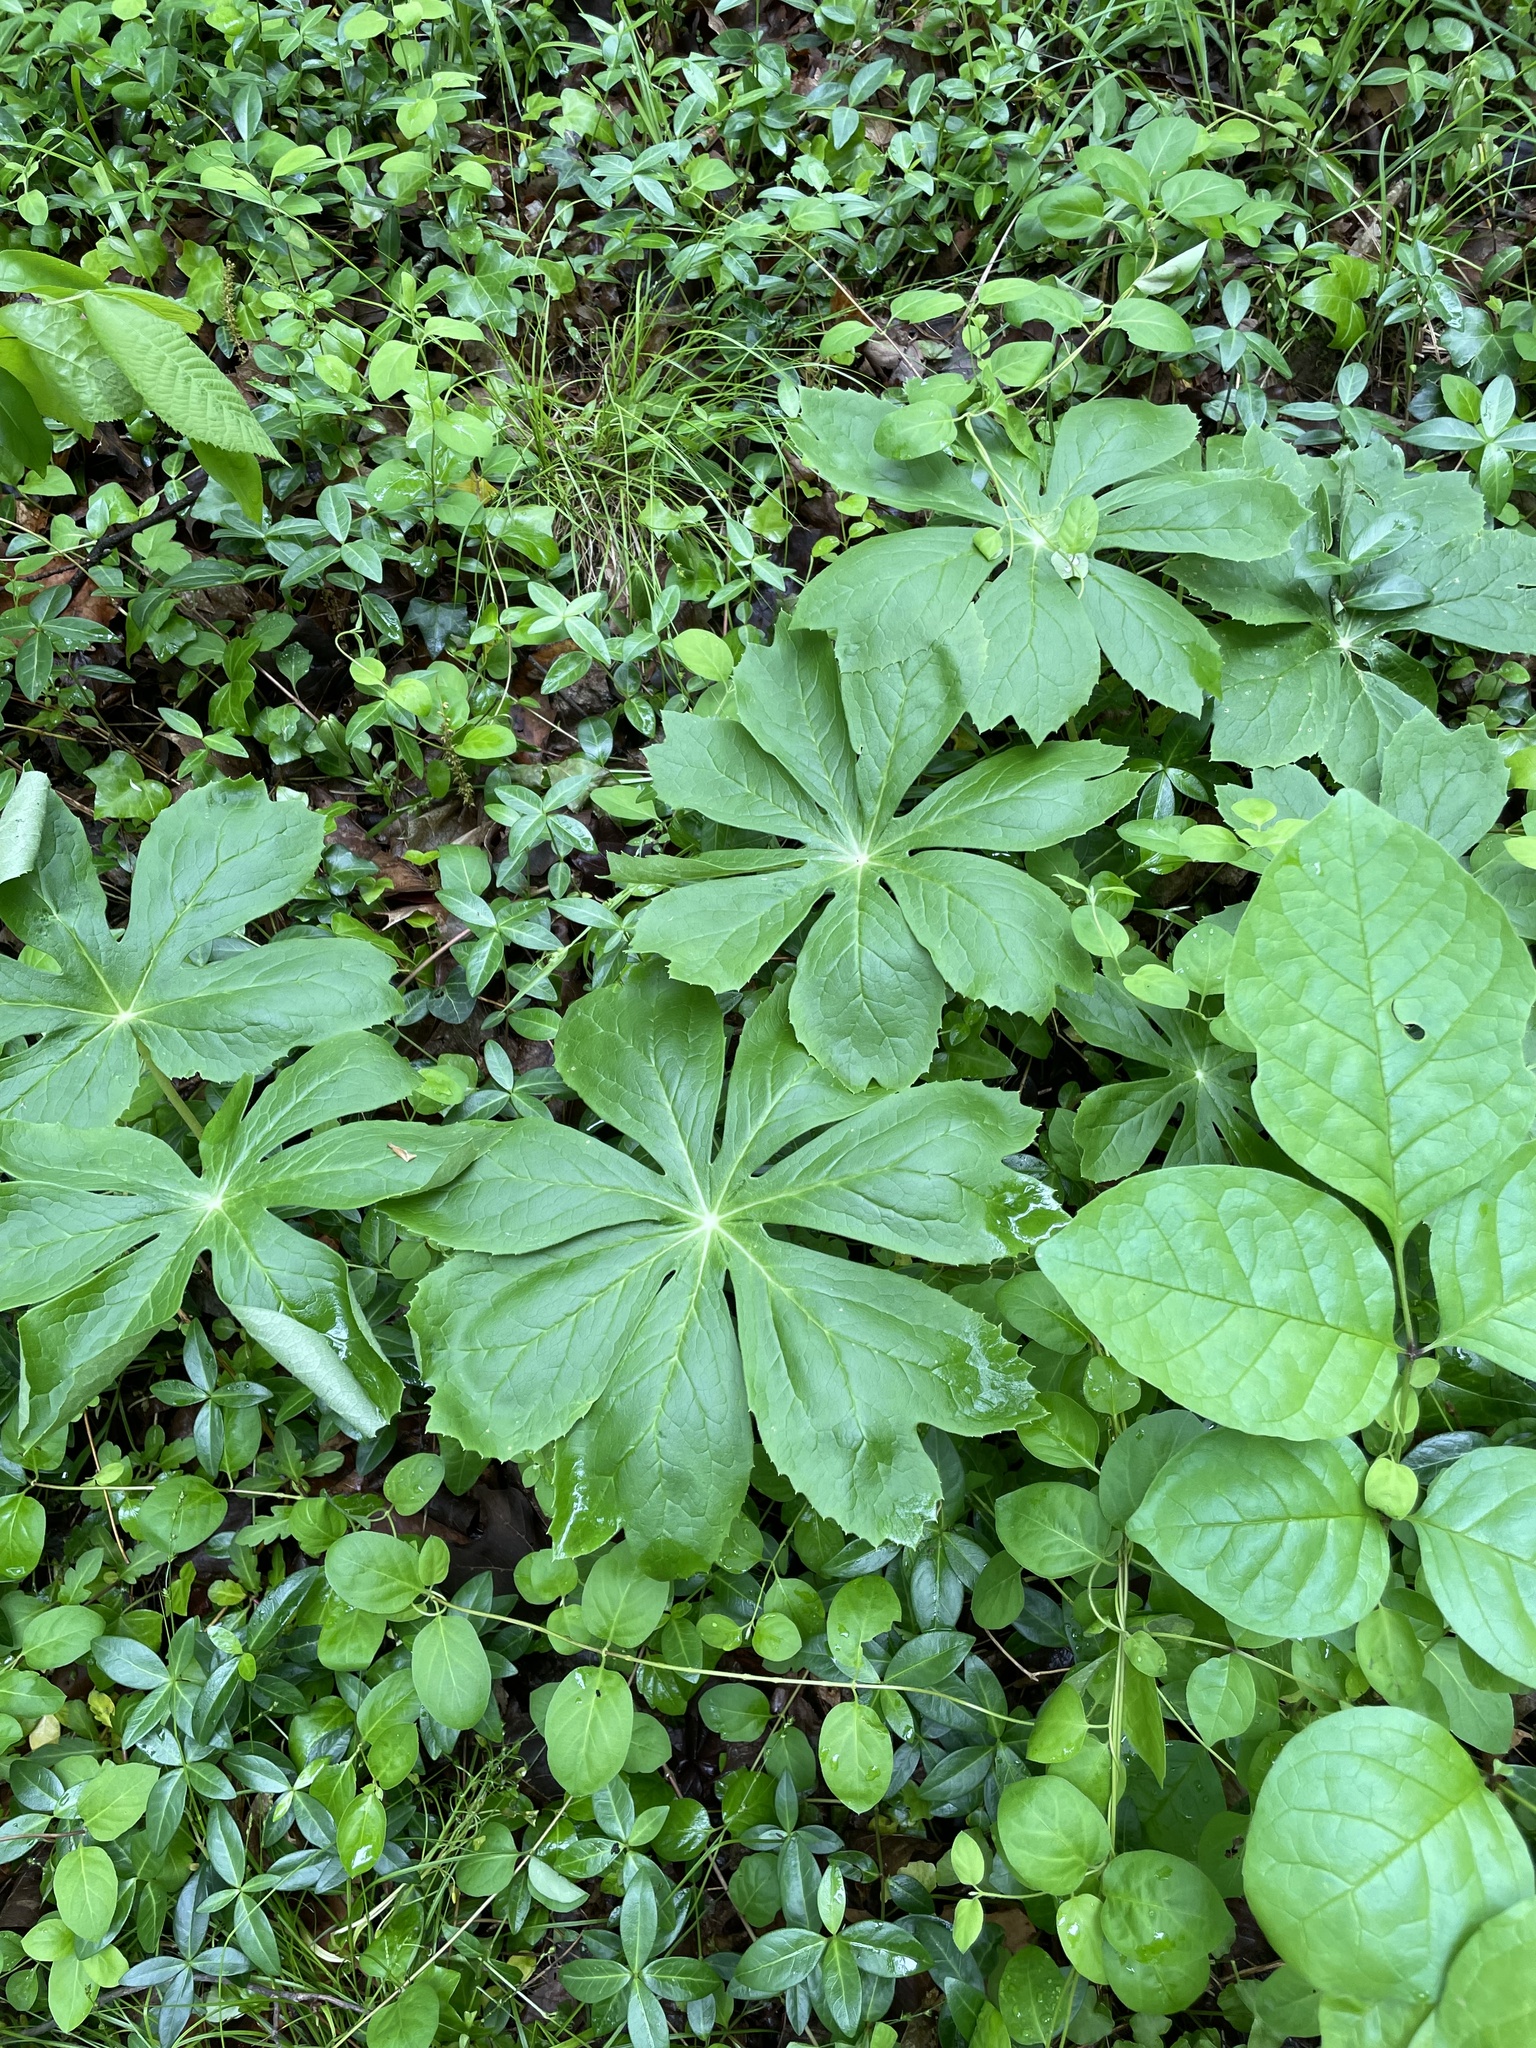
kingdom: Plantae
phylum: Tracheophyta
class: Magnoliopsida
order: Ranunculales
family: Berberidaceae
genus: Podophyllum
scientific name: Podophyllum peltatum
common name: Wild mandrake
